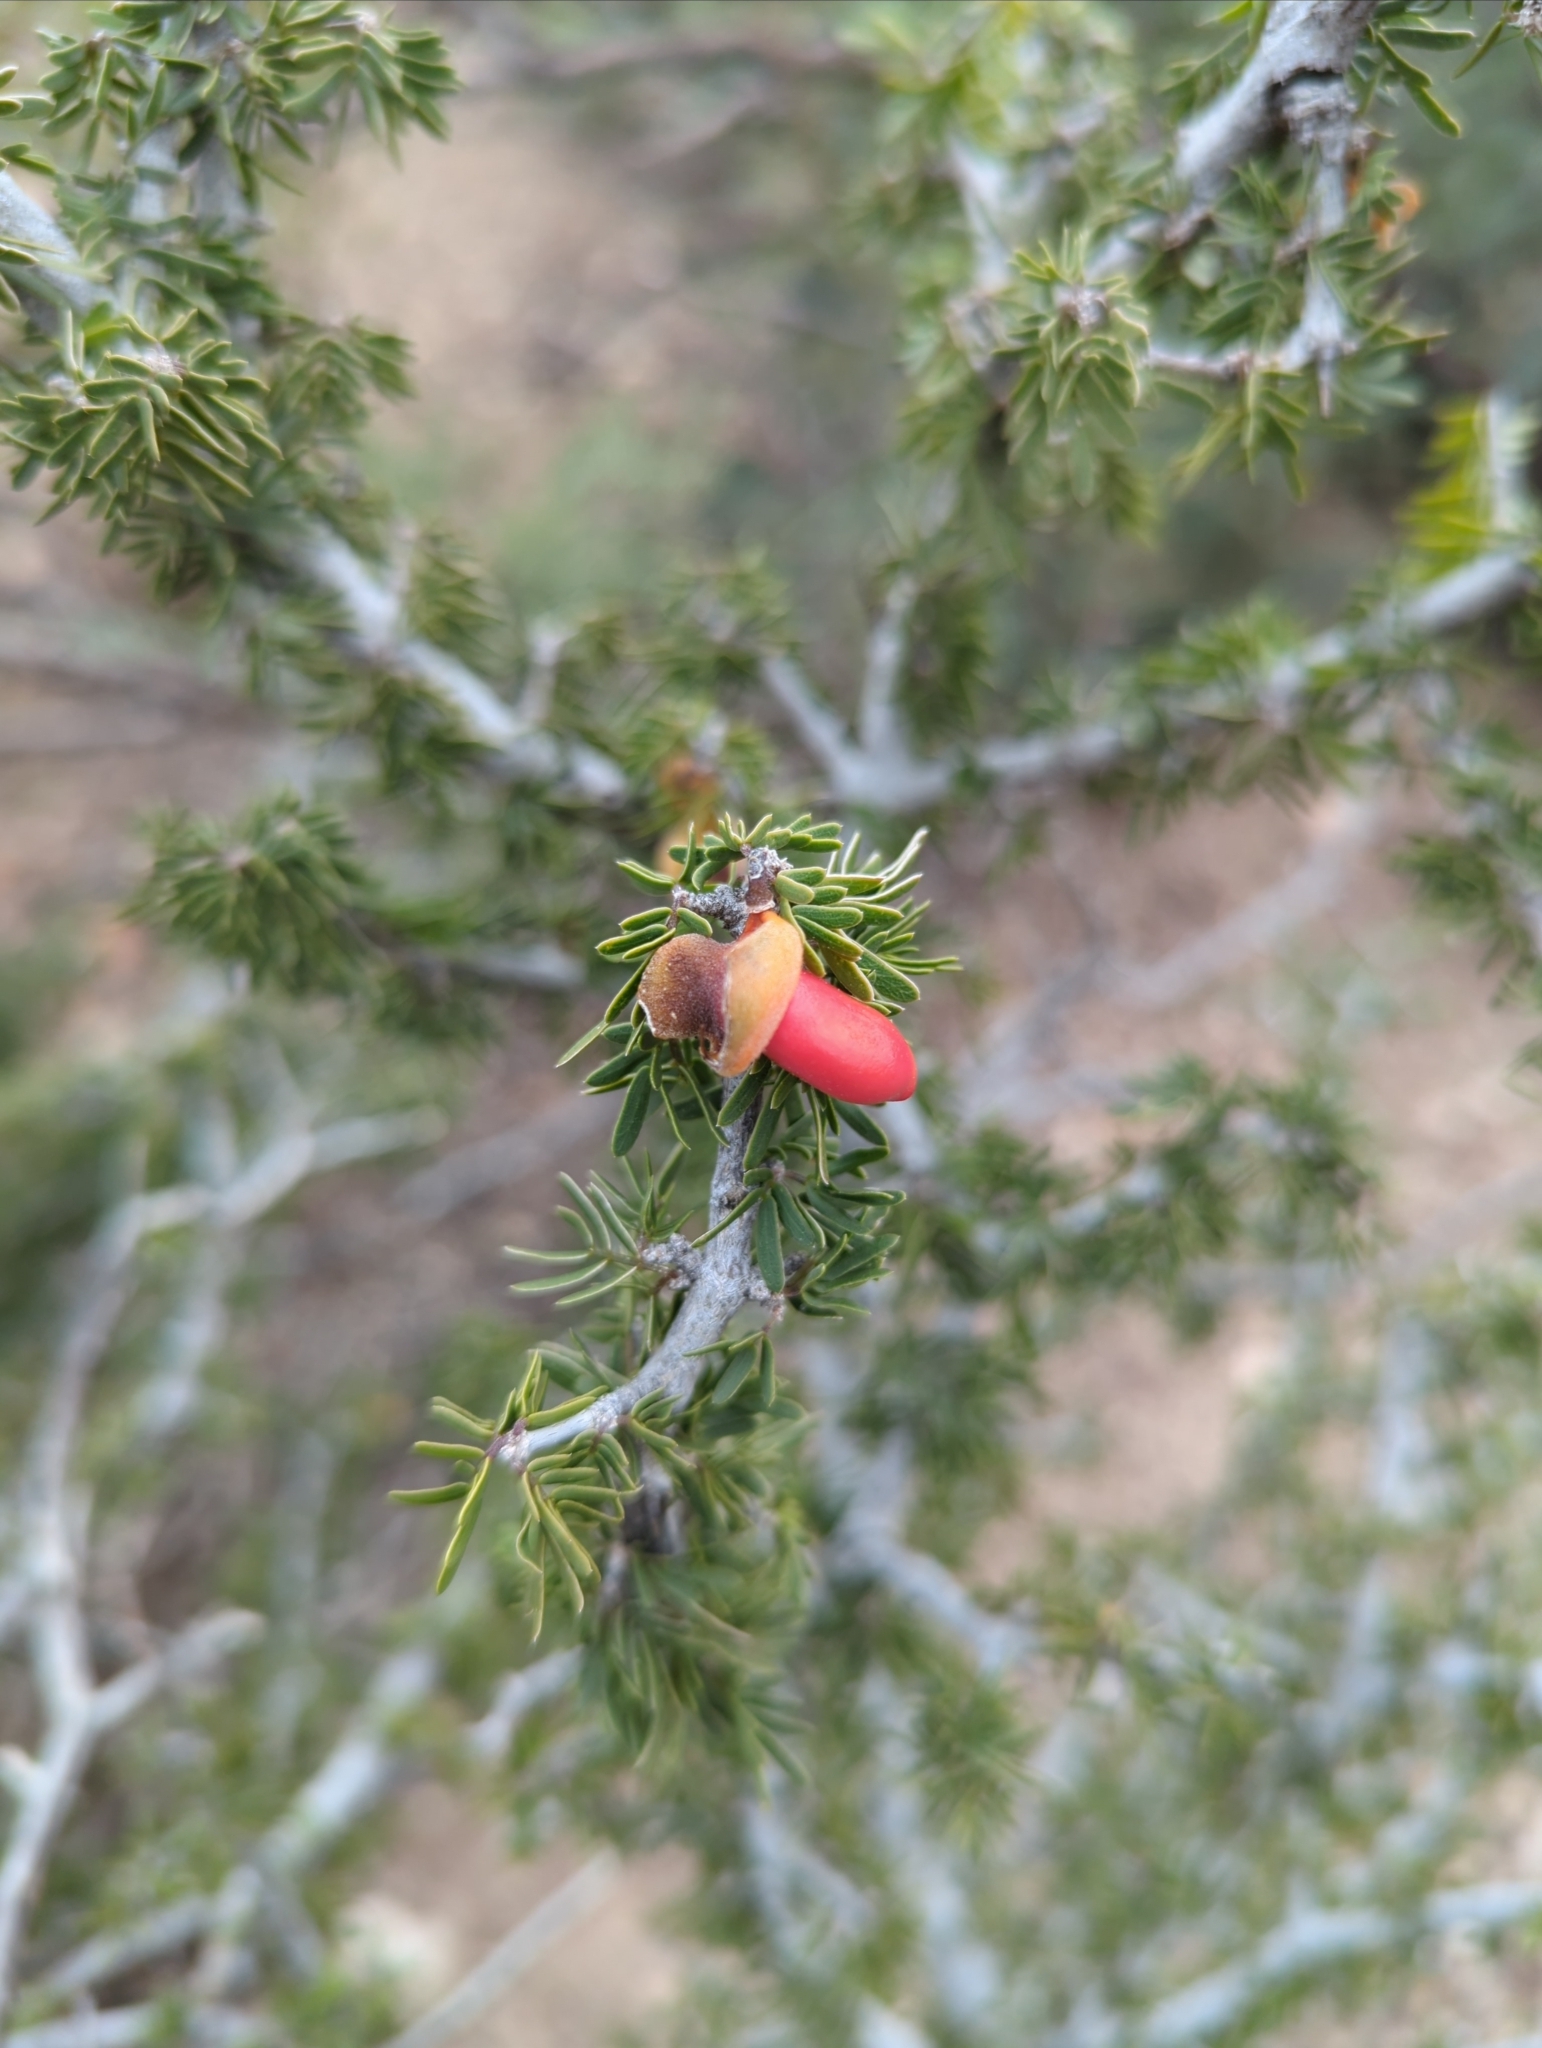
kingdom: Plantae
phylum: Tracheophyta
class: Magnoliopsida
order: Zygophyllales
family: Zygophyllaceae
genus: Porlieria
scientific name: Porlieria angustifolia
